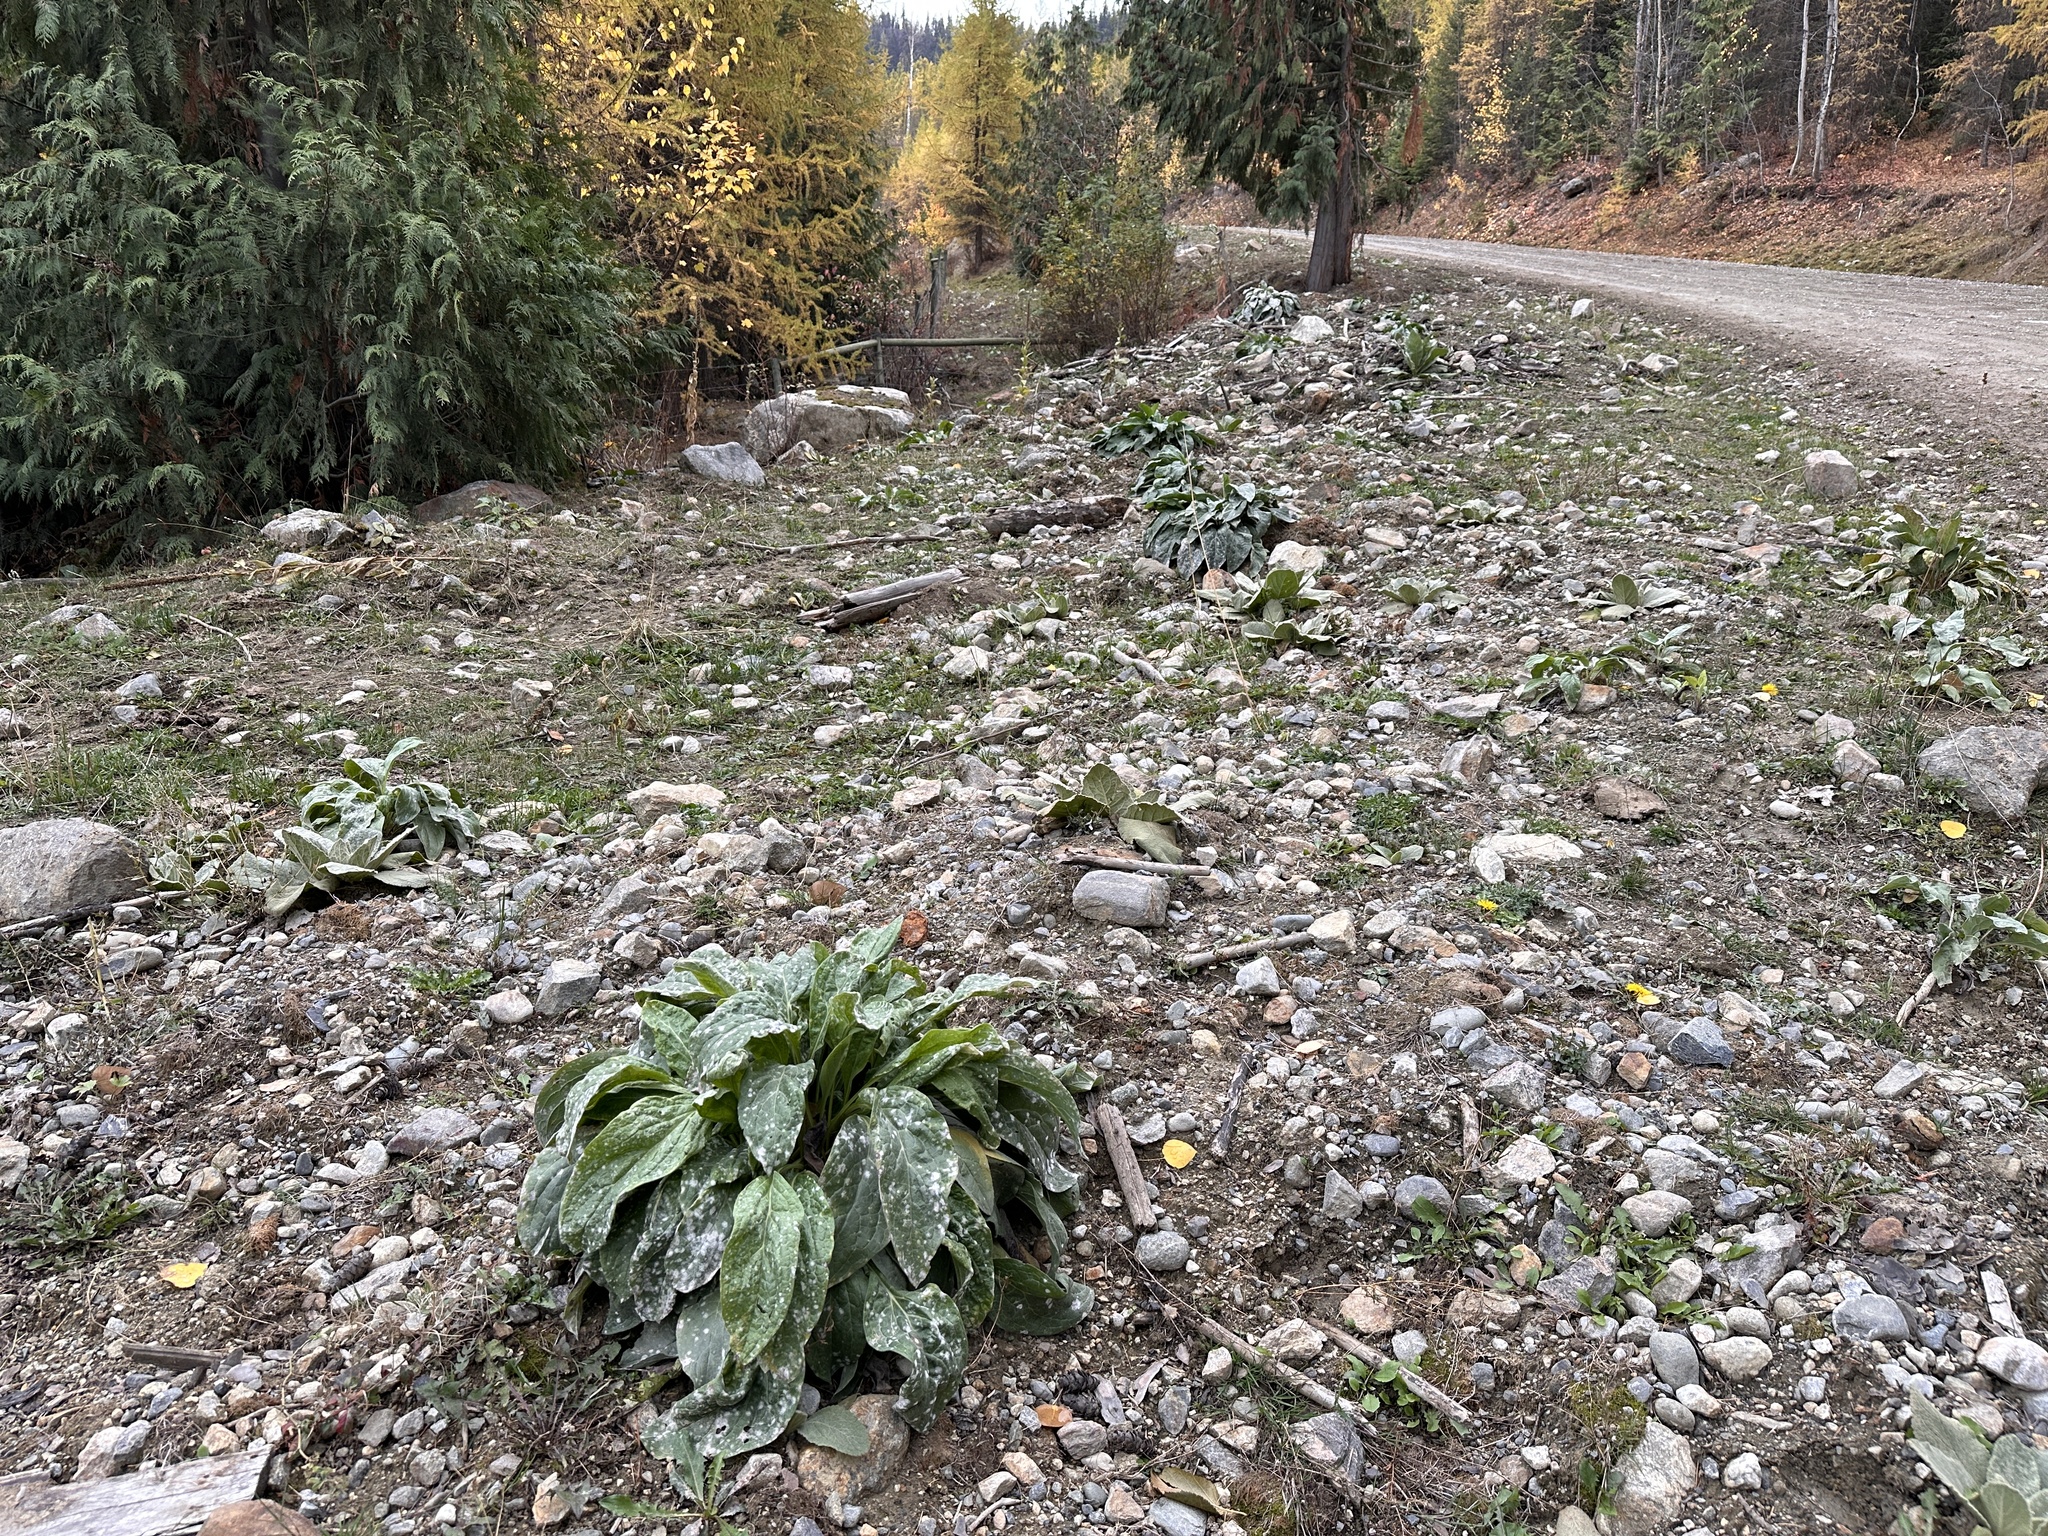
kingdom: Plantae
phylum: Tracheophyta
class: Magnoliopsida
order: Boraginales
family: Boraginaceae
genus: Cynoglossum
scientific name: Cynoglossum officinale
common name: Hound's-tongue
